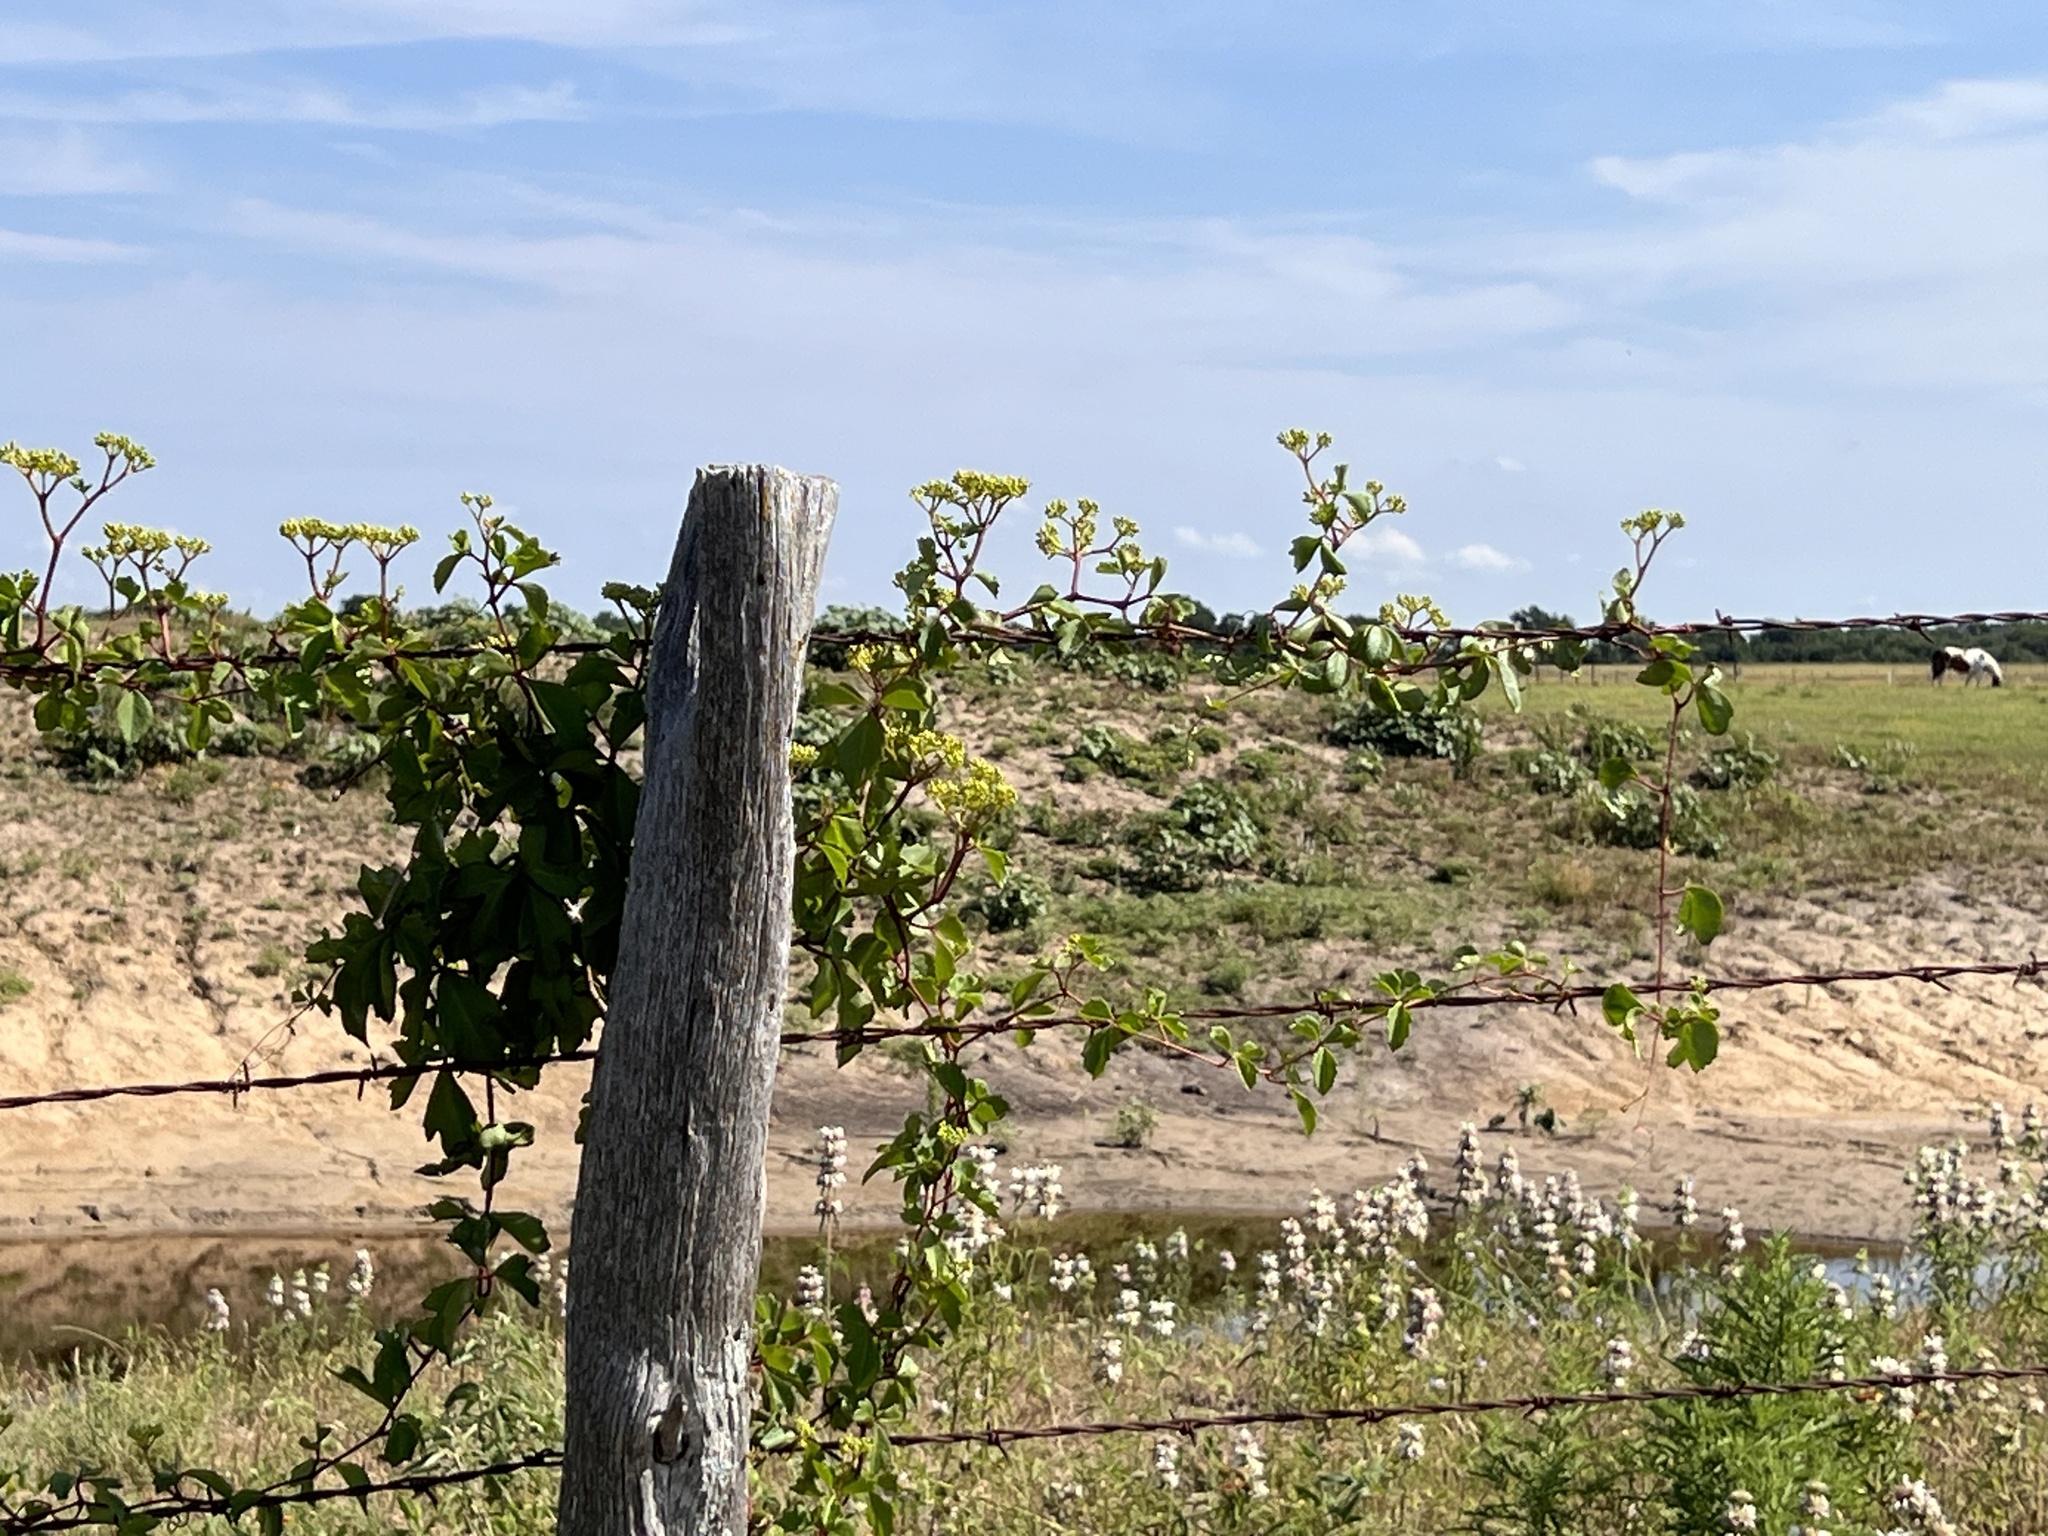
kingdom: Plantae
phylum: Tracheophyta
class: Magnoliopsida
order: Vitales
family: Vitaceae
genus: Cissus
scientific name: Cissus trifoliata
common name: Vine-sorrel
